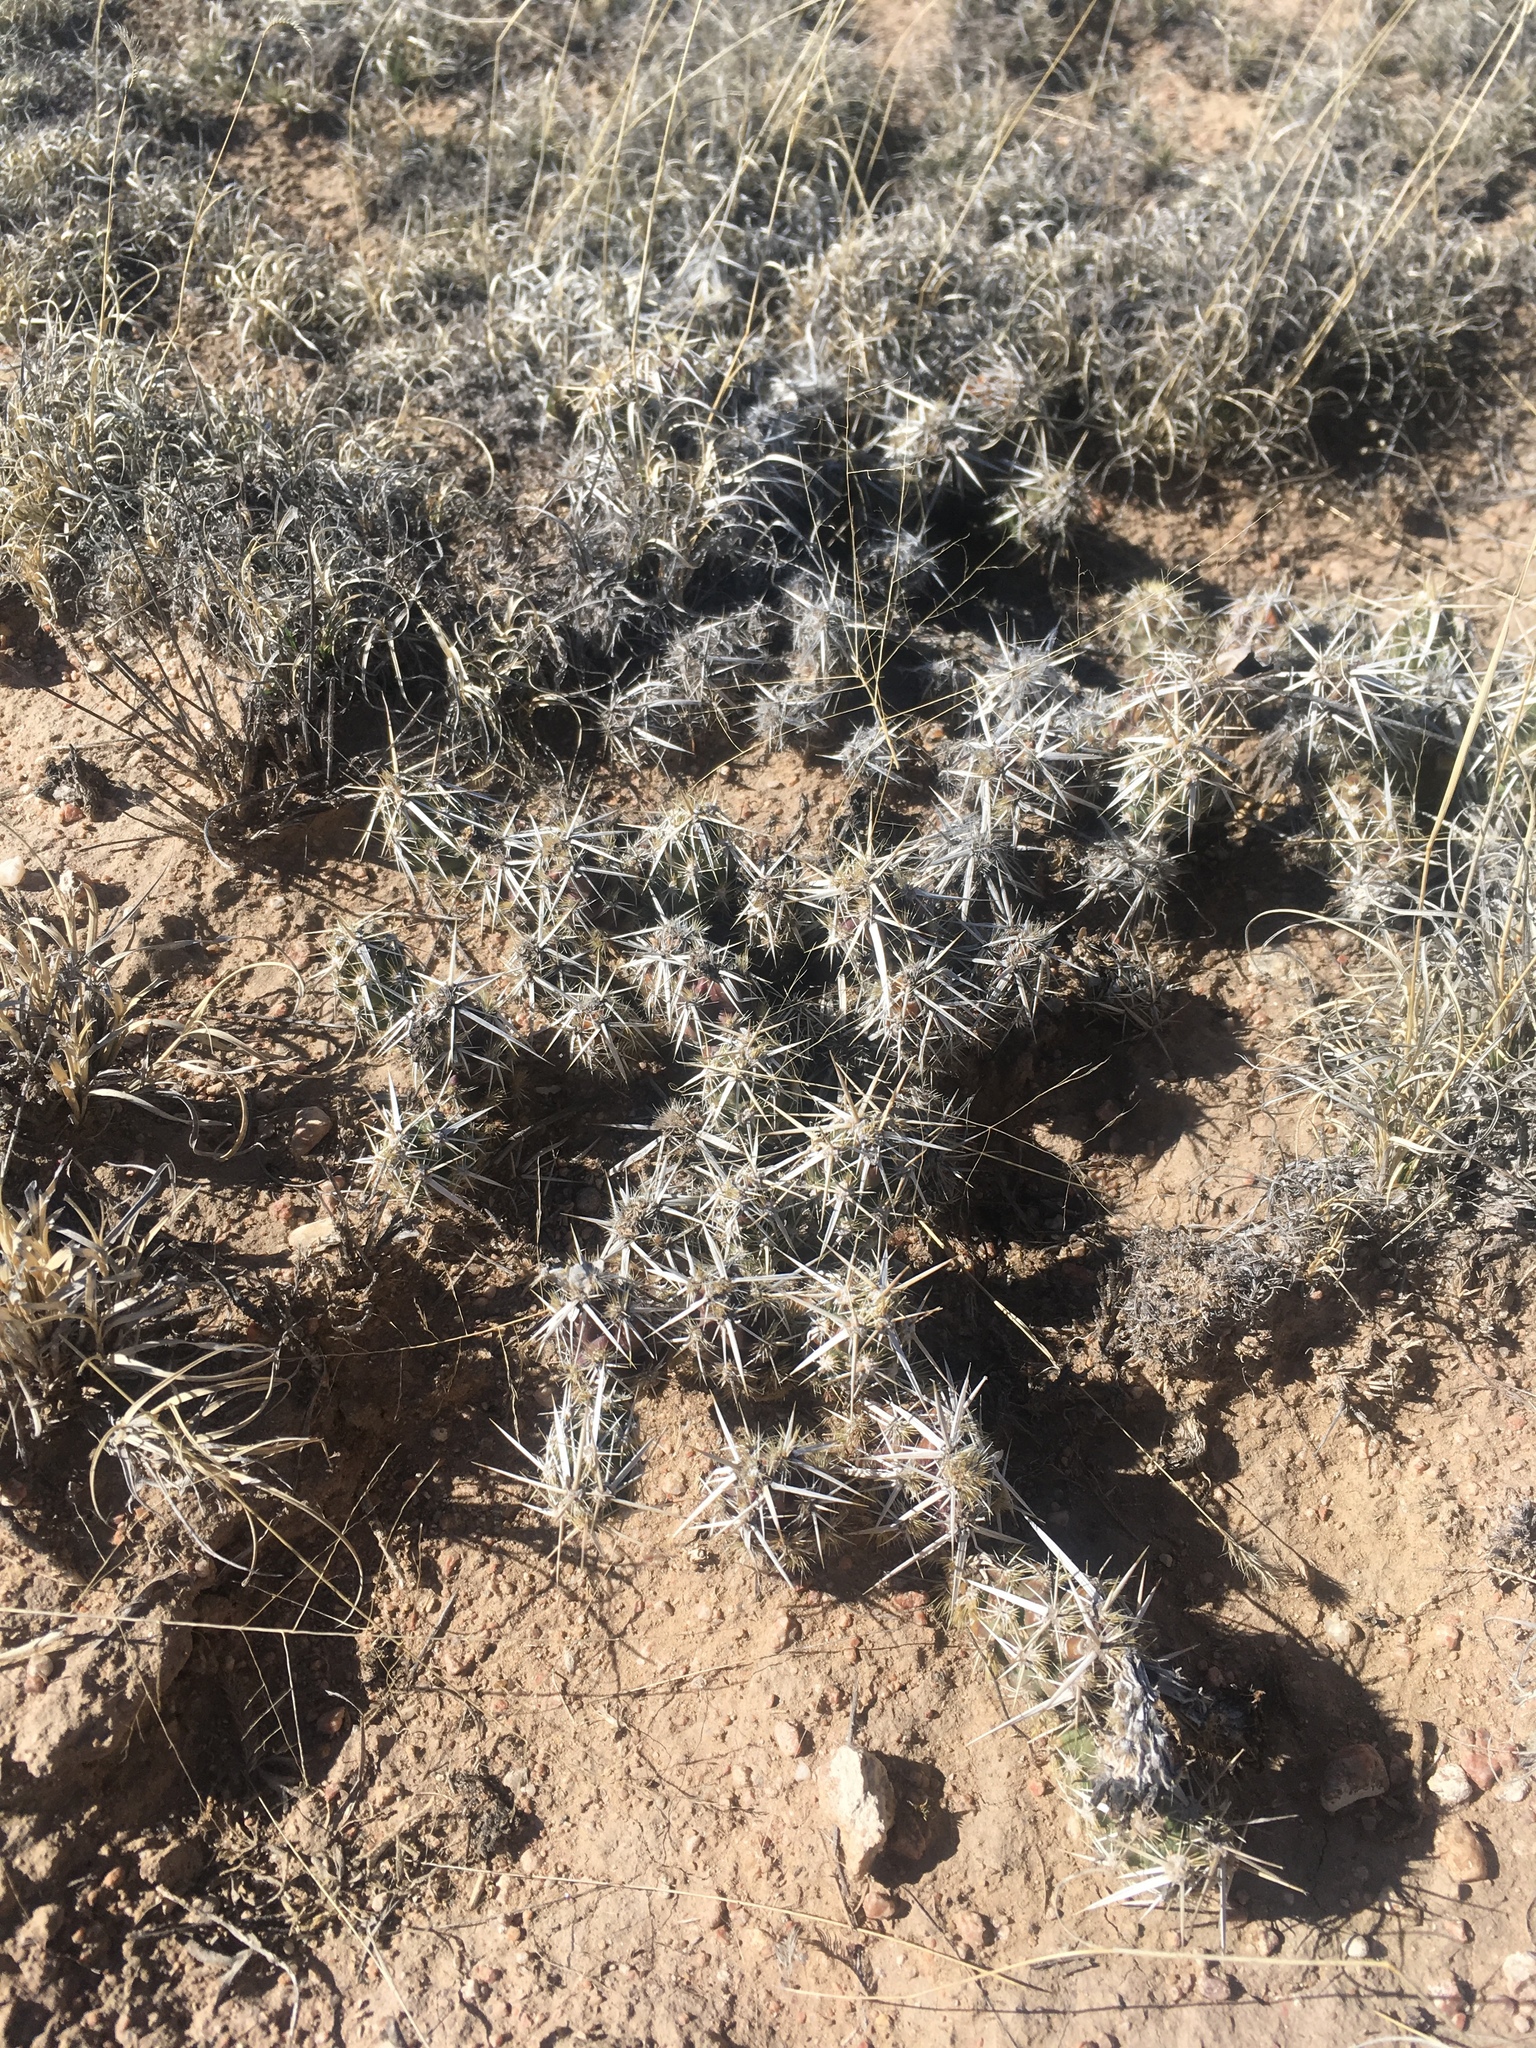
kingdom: Plantae
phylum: Tracheophyta
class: Magnoliopsida
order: Caryophyllales
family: Cactaceae
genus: Grusonia
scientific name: Grusonia clavata
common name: Club cholla
